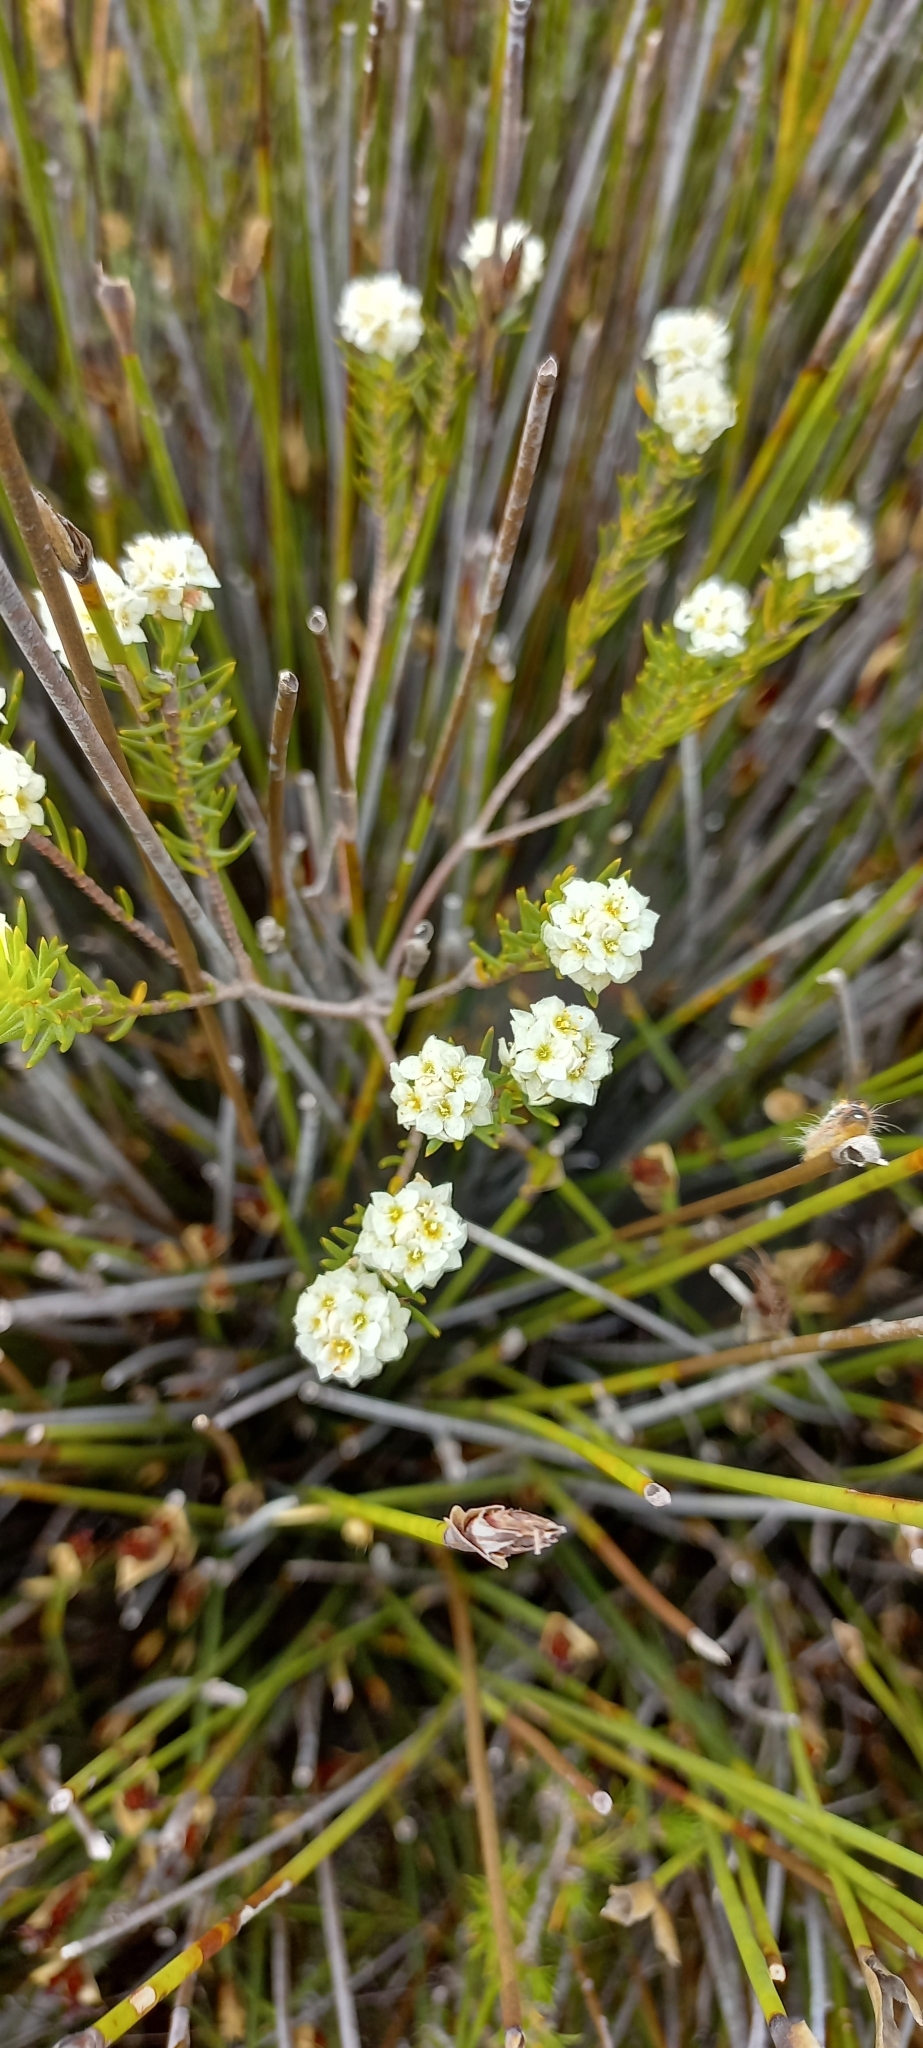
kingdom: Plantae
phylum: Tracheophyta
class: Magnoliopsida
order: Malvales
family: Thymelaeaceae
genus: Lachnaea
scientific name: Lachnaea densiflora
